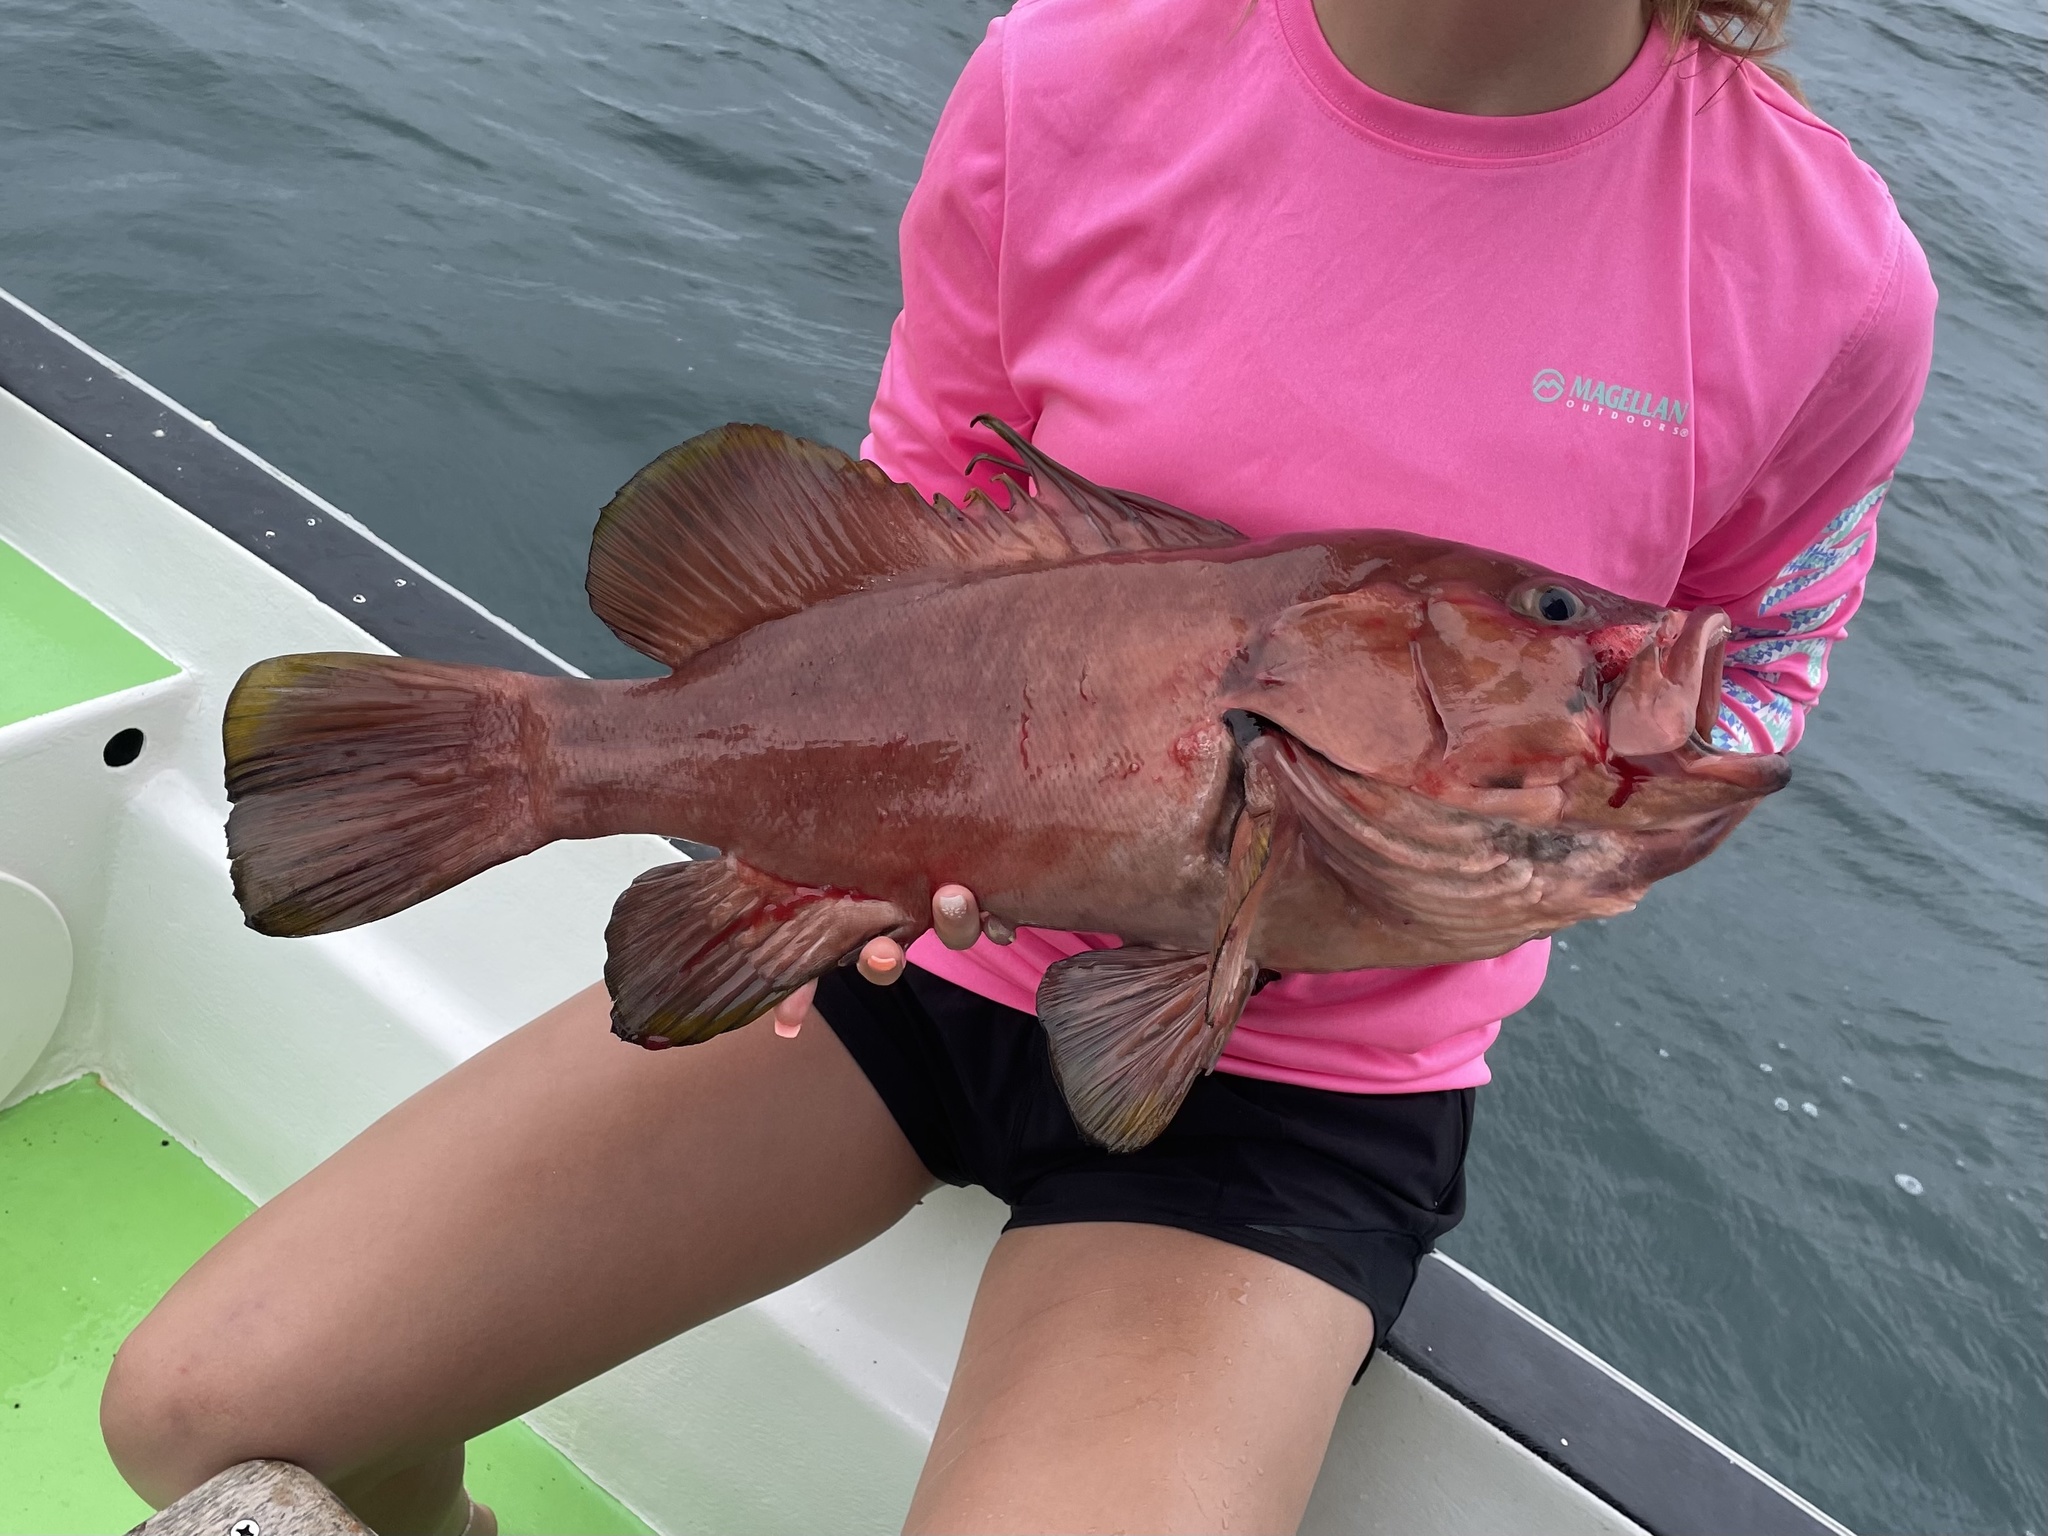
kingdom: Animalia
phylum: Chordata
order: Perciformes
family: Serranidae
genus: Hyporthodus
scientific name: Hyporthodus acanthistius
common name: Gulf coney
